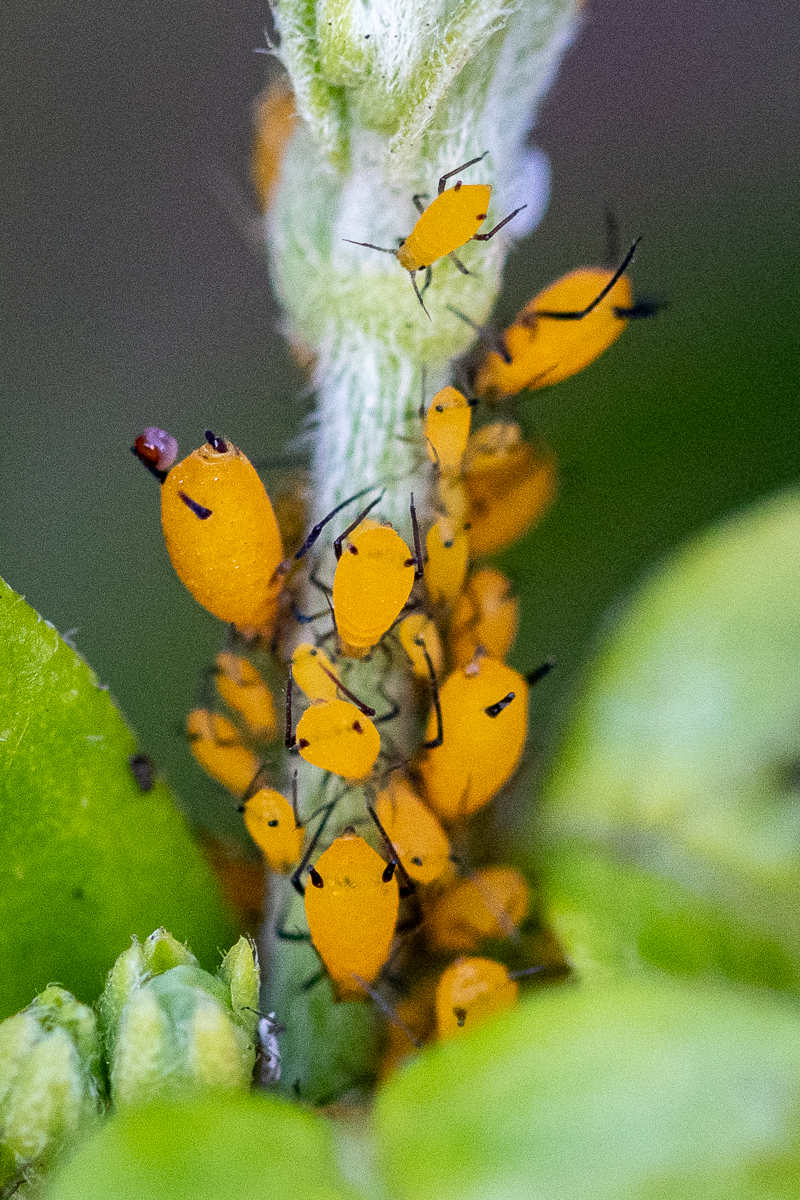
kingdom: Animalia
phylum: Arthropoda
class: Insecta
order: Hemiptera
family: Aphididae
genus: Aphis
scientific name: Aphis nerii
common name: Oleander aphid
